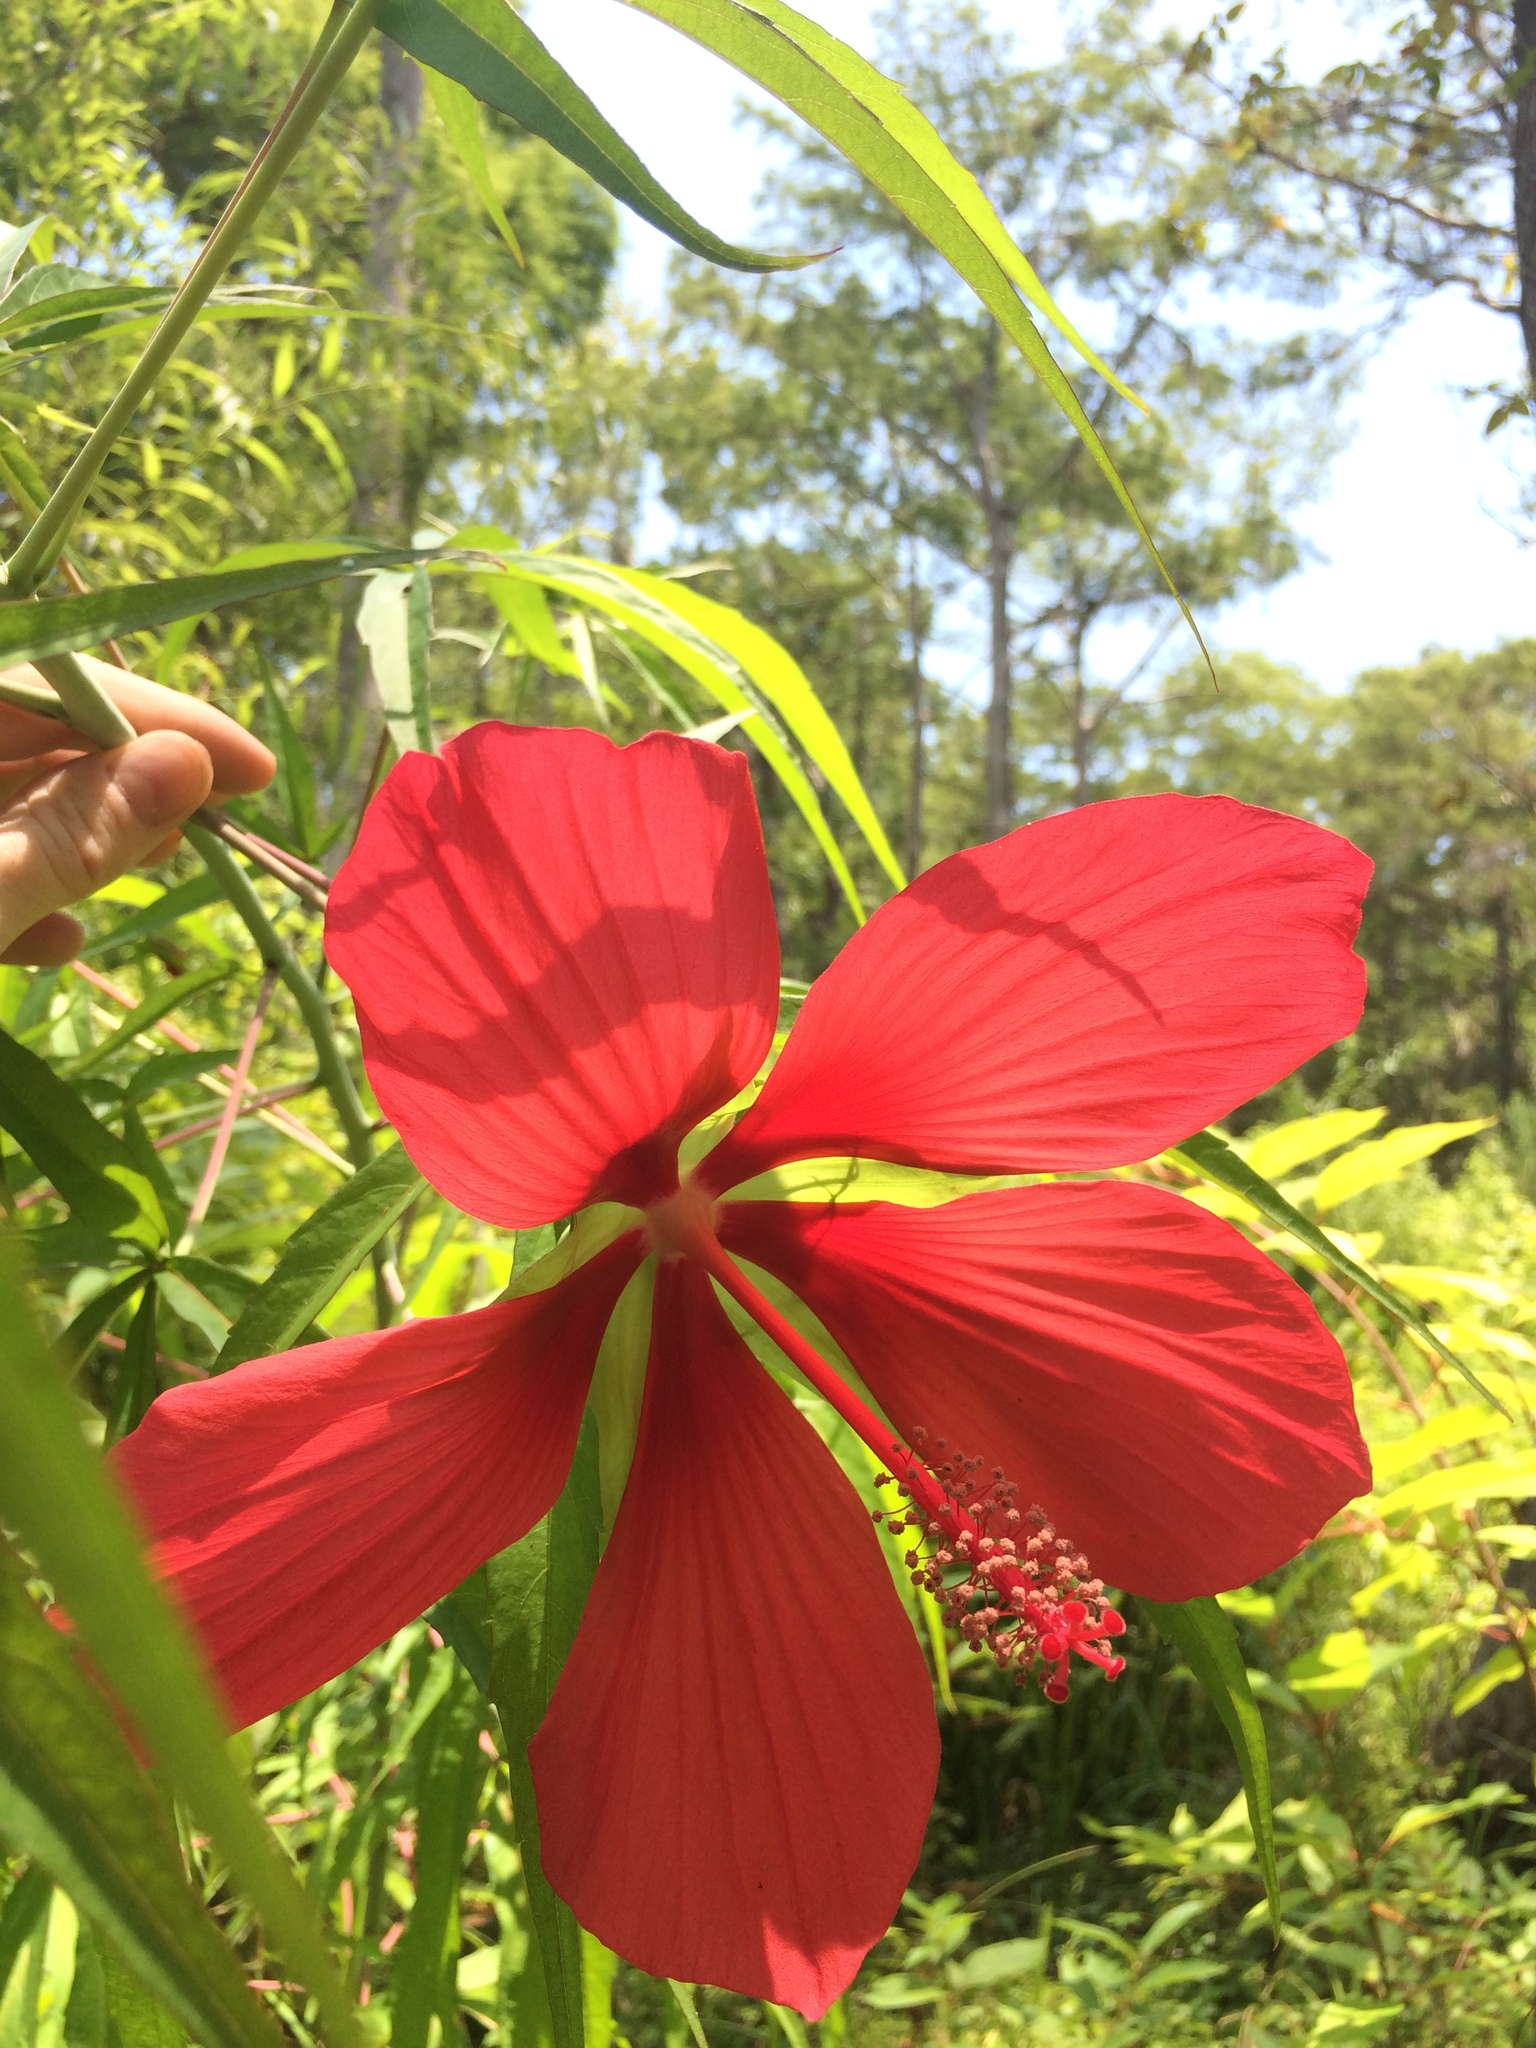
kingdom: Plantae
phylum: Tracheophyta
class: Magnoliopsida
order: Malvales
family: Malvaceae
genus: Hibiscus
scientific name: Hibiscus coccineus
